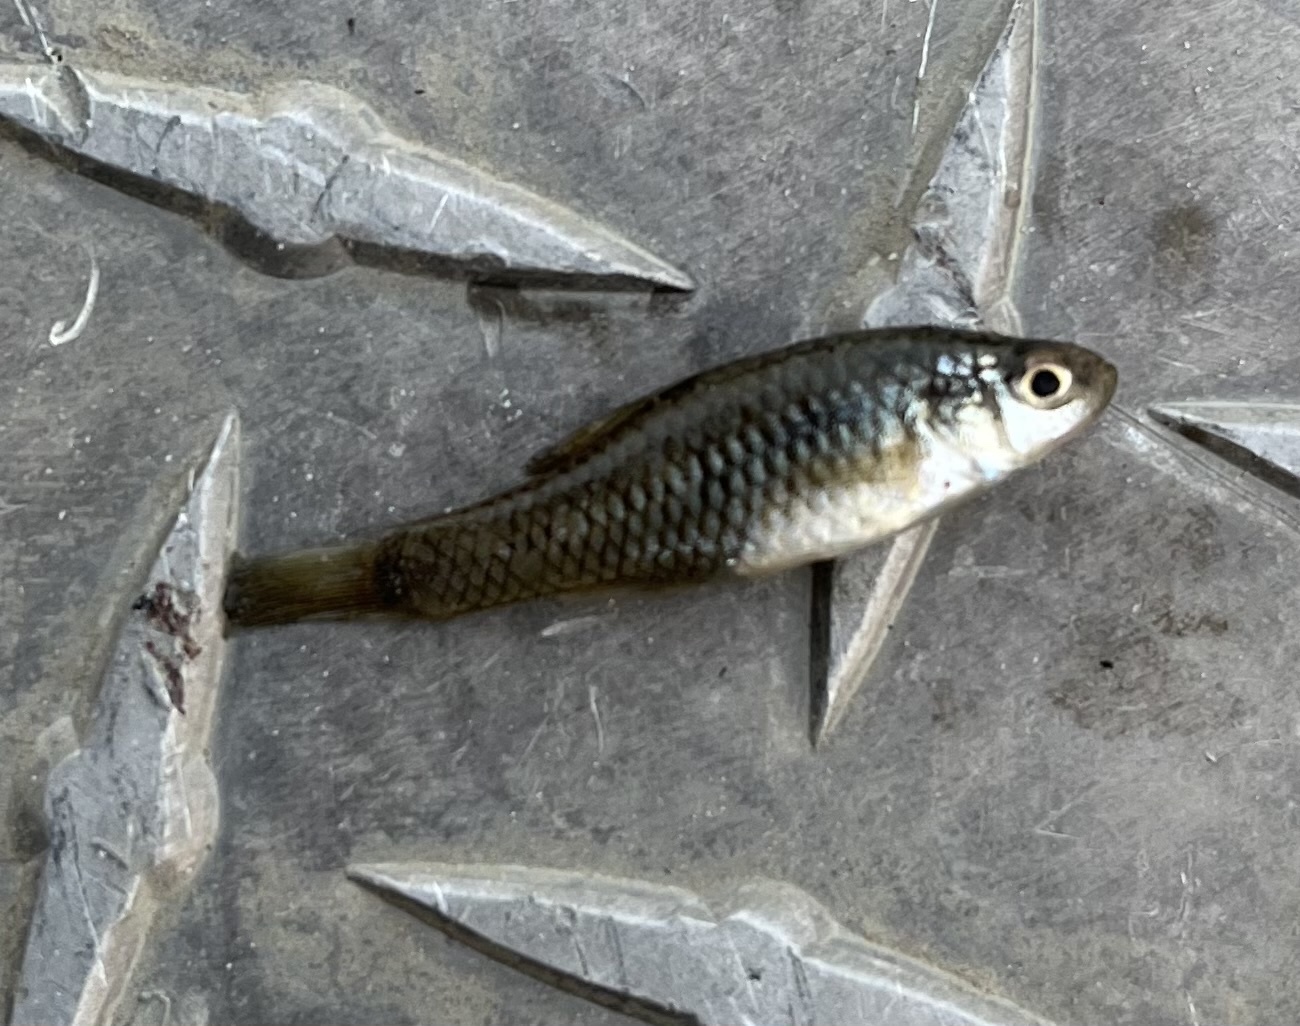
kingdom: Animalia
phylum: Chordata
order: Cyprinodontiformes
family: Fundulidae
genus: Lucania
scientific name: Lucania parva
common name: Rainwater killifish
